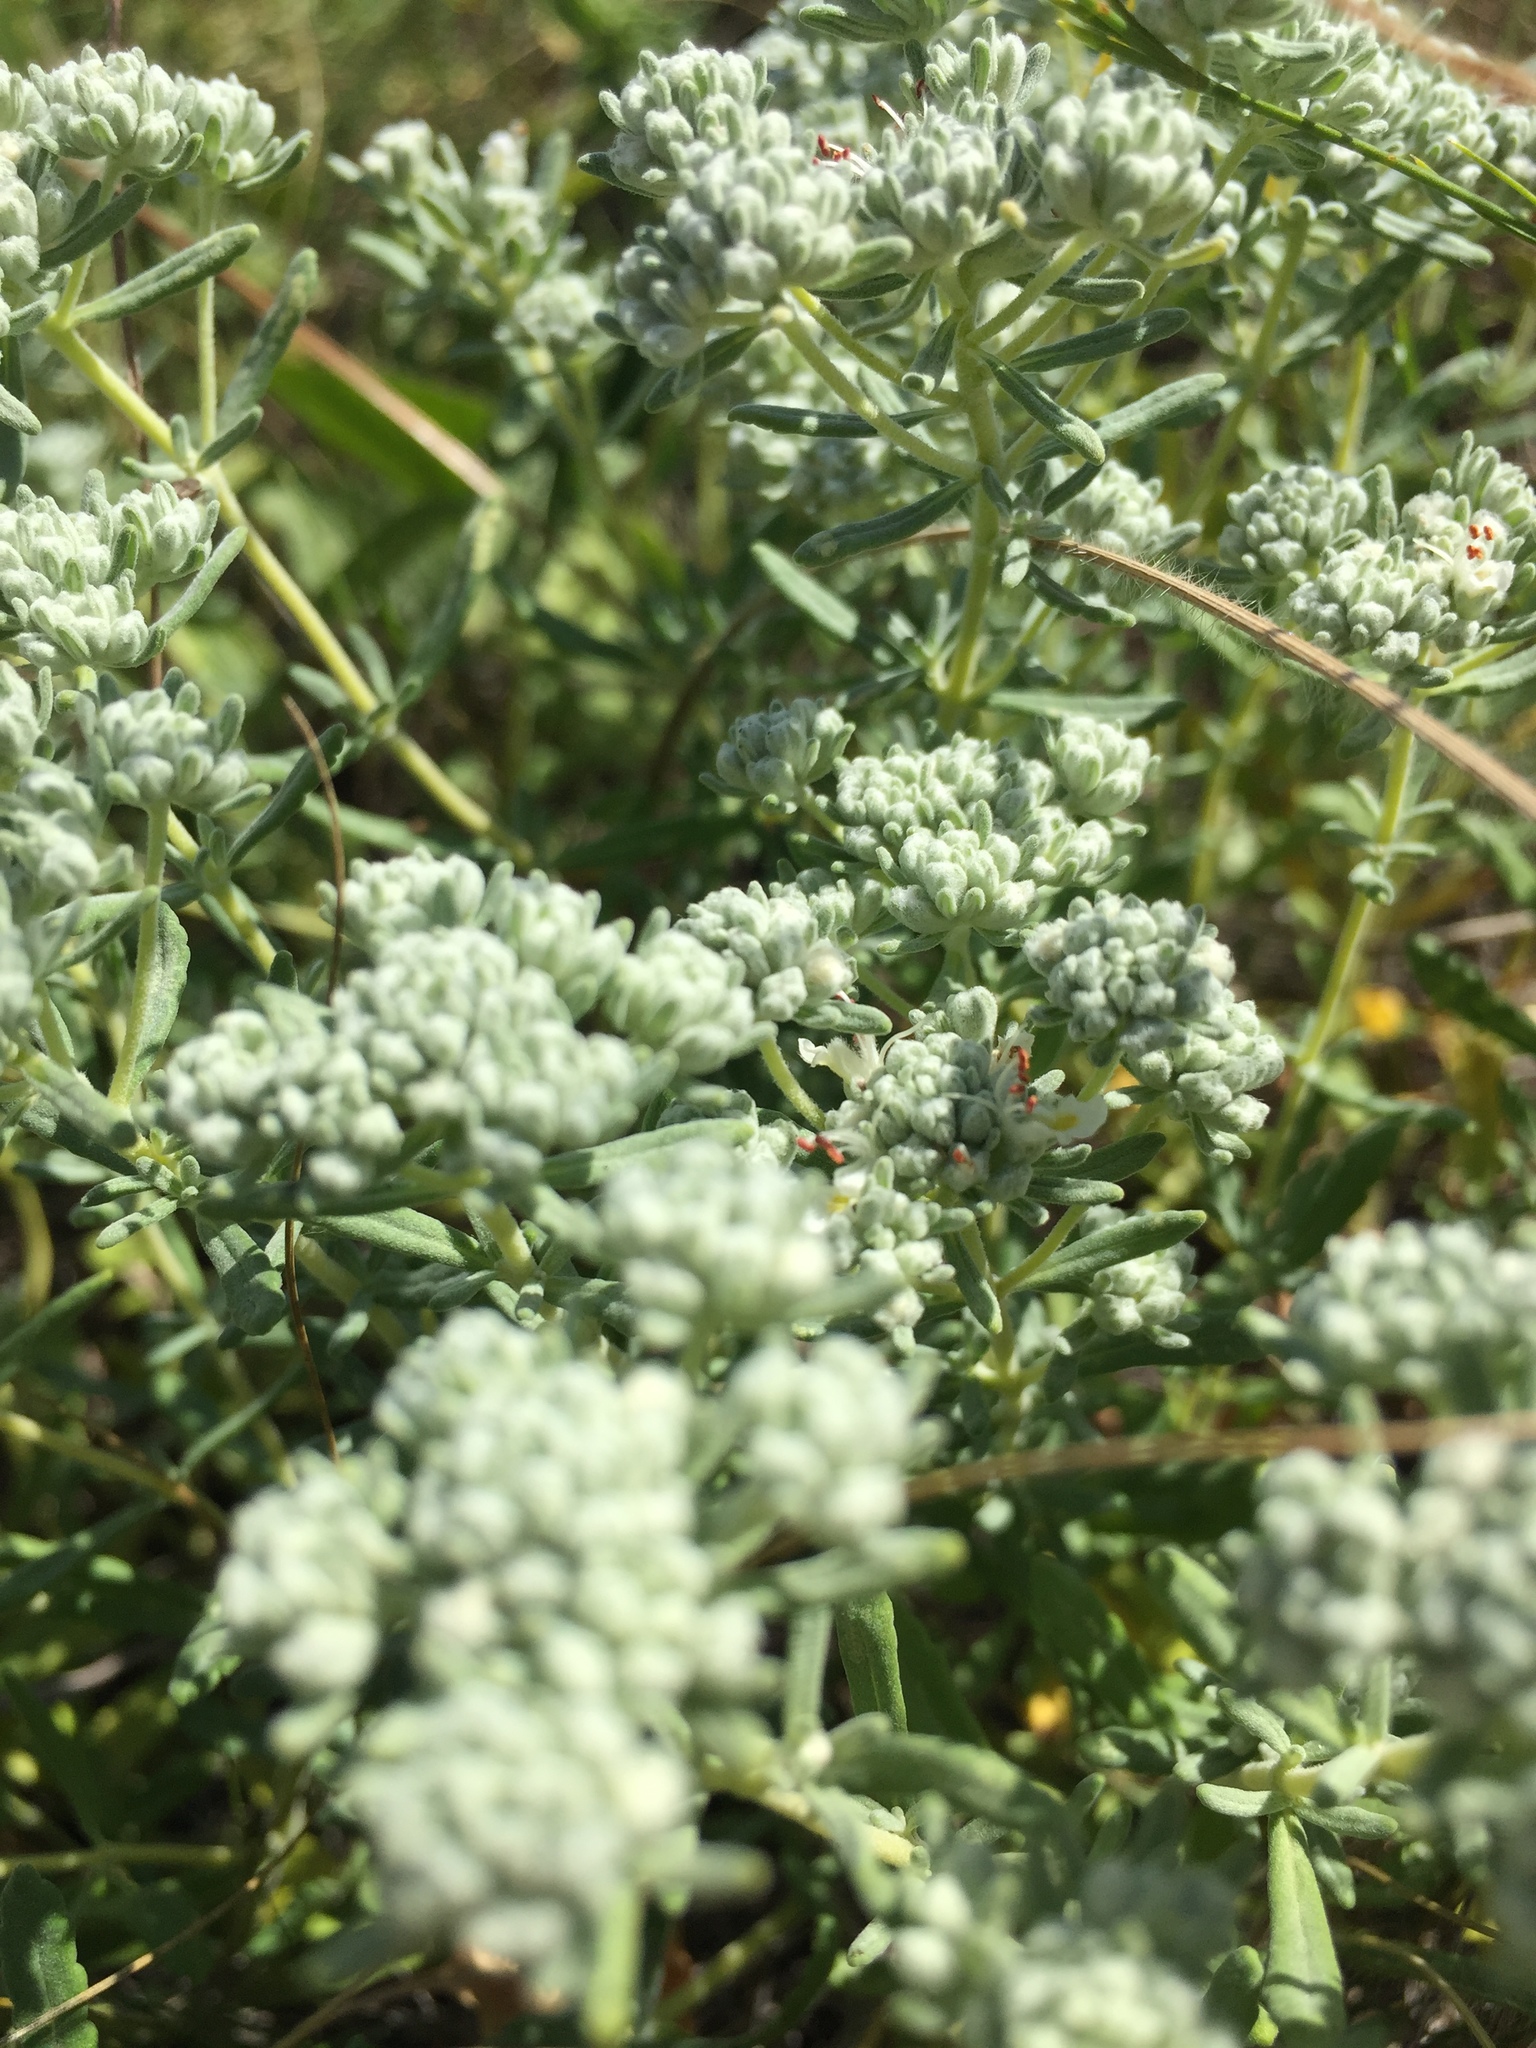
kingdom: Plantae
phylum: Tracheophyta
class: Magnoliopsida
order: Lamiales
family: Lamiaceae
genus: Teucrium
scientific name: Teucrium polium
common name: Poley
